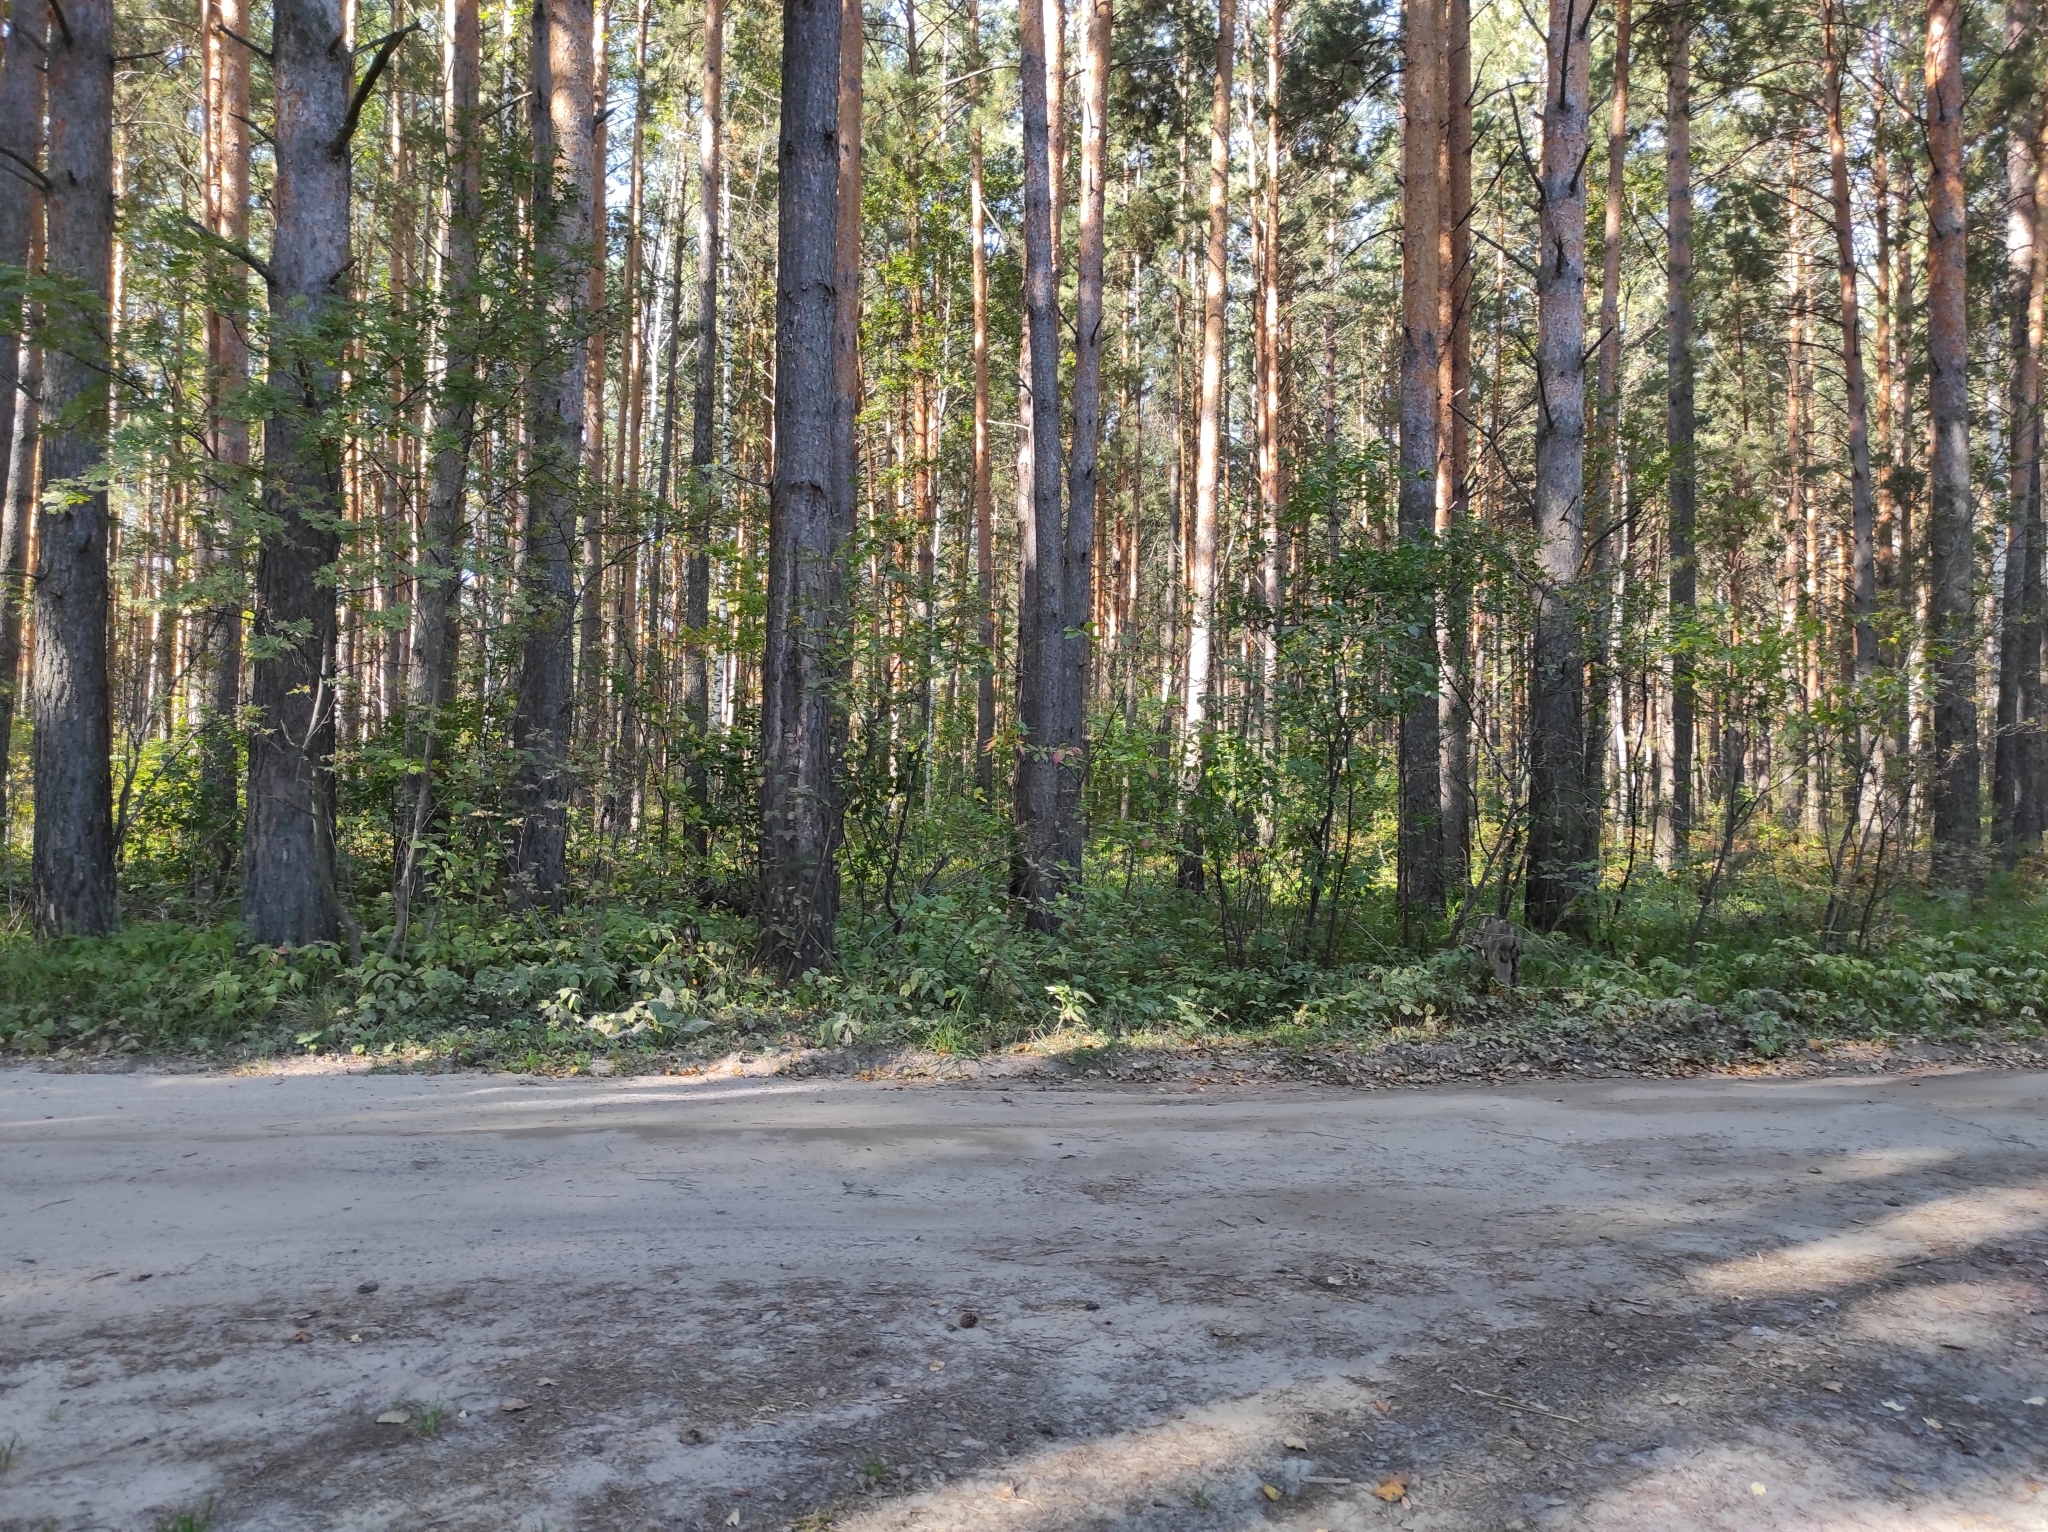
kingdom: Plantae
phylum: Tracheophyta
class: Pinopsida
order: Pinales
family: Pinaceae
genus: Pinus
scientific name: Pinus sylvestris
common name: Scots pine
